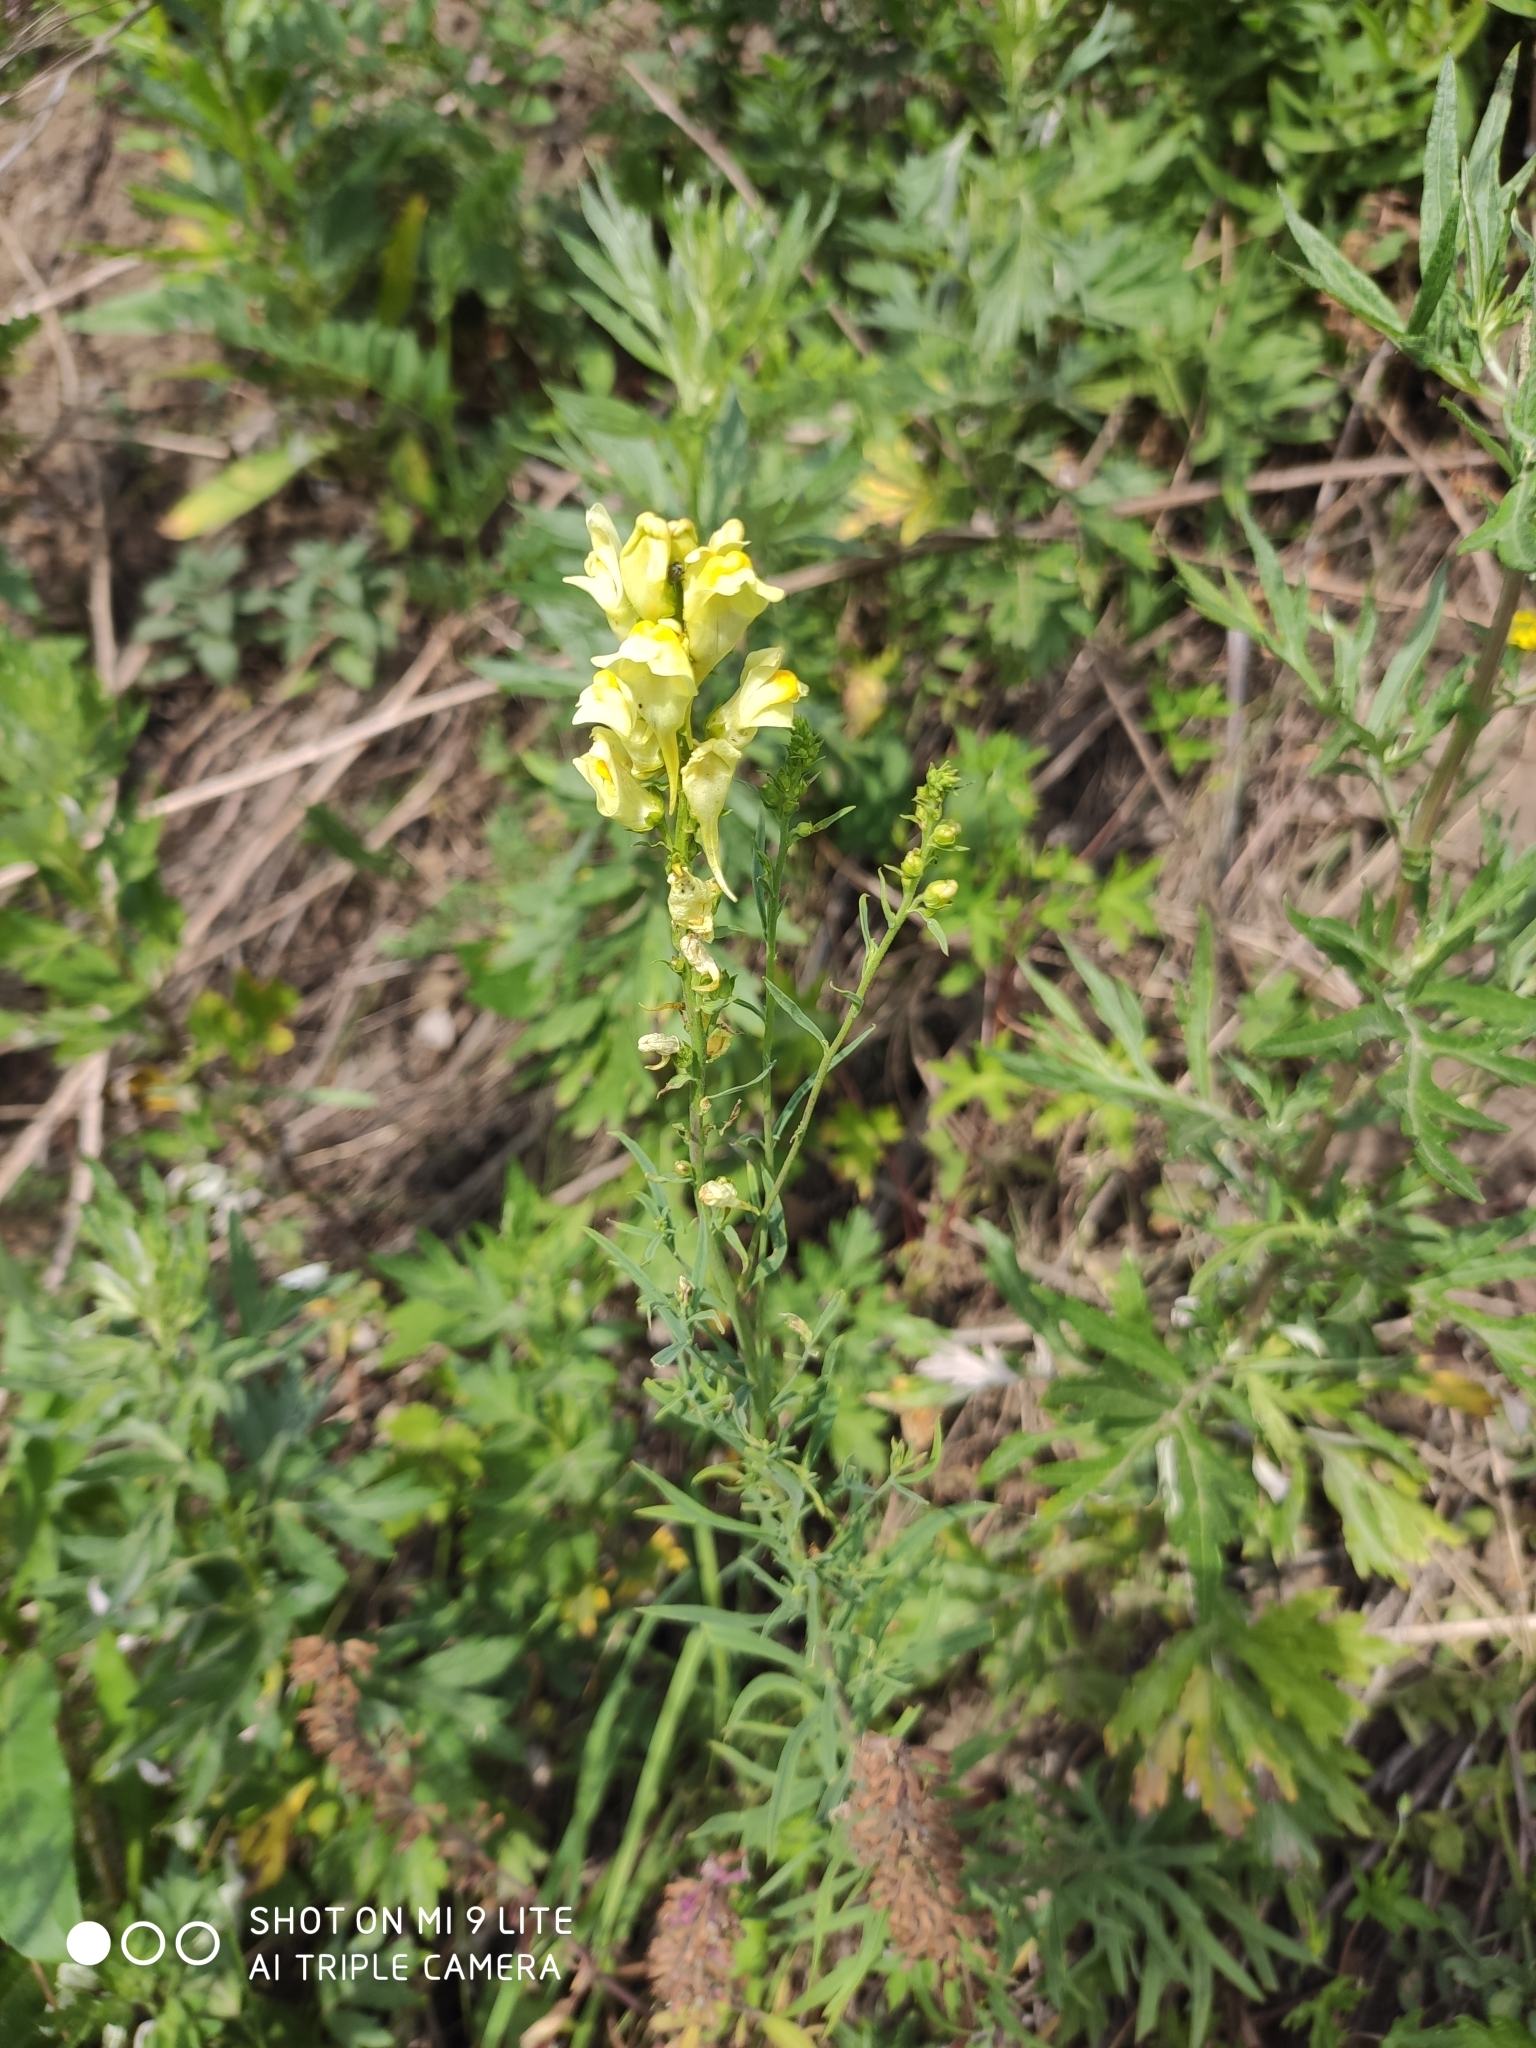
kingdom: Plantae
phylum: Tracheophyta
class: Magnoliopsida
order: Lamiales
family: Plantaginaceae
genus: Linaria
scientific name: Linaria vulgaris
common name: Butter and eggs
